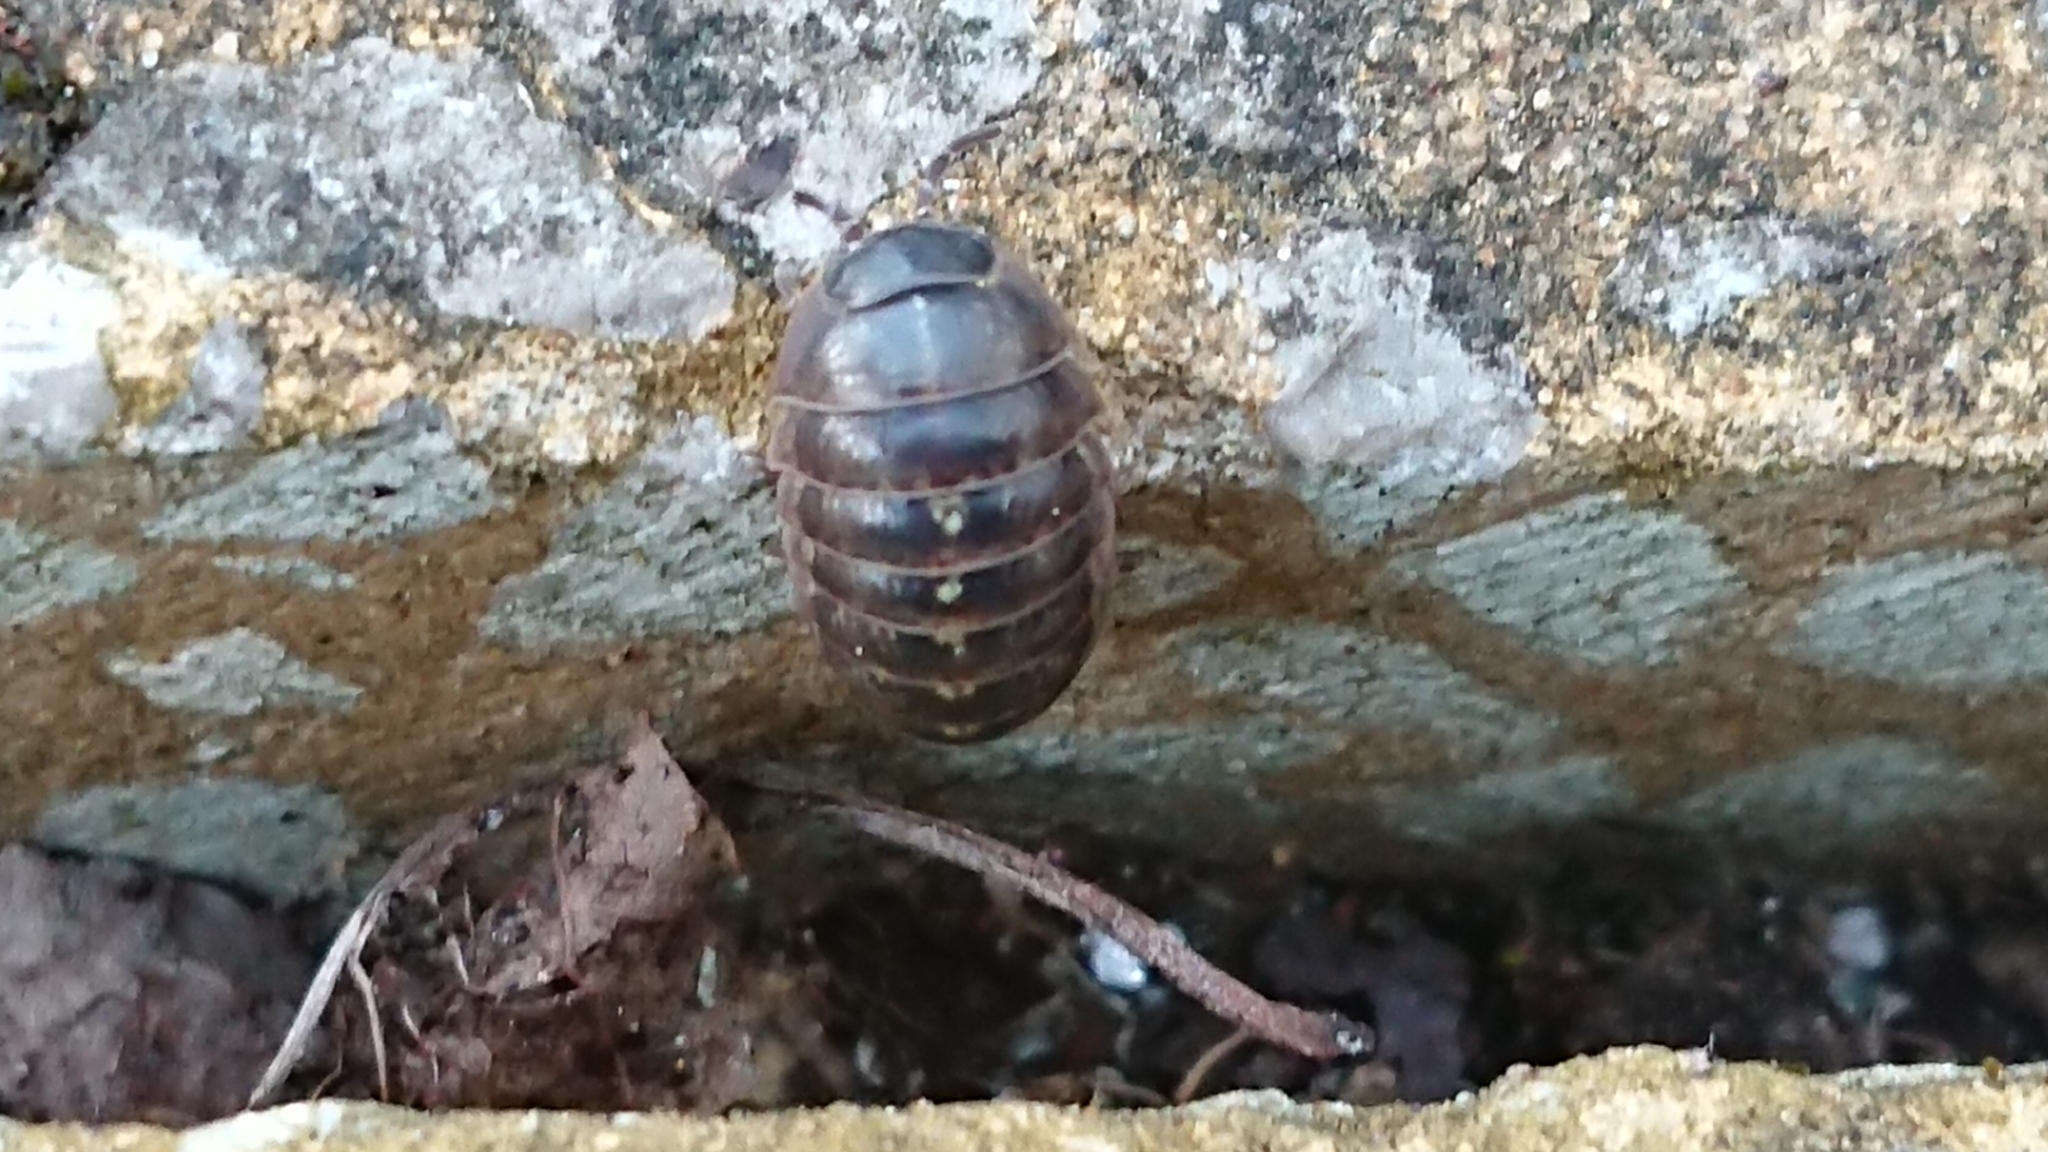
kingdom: Animalia
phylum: Arthropoda
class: Malacostraca
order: Isopoda
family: Armadillidiidae
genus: Armadillidium
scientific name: Armadillidium vulgare
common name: Common pill woodlouse
